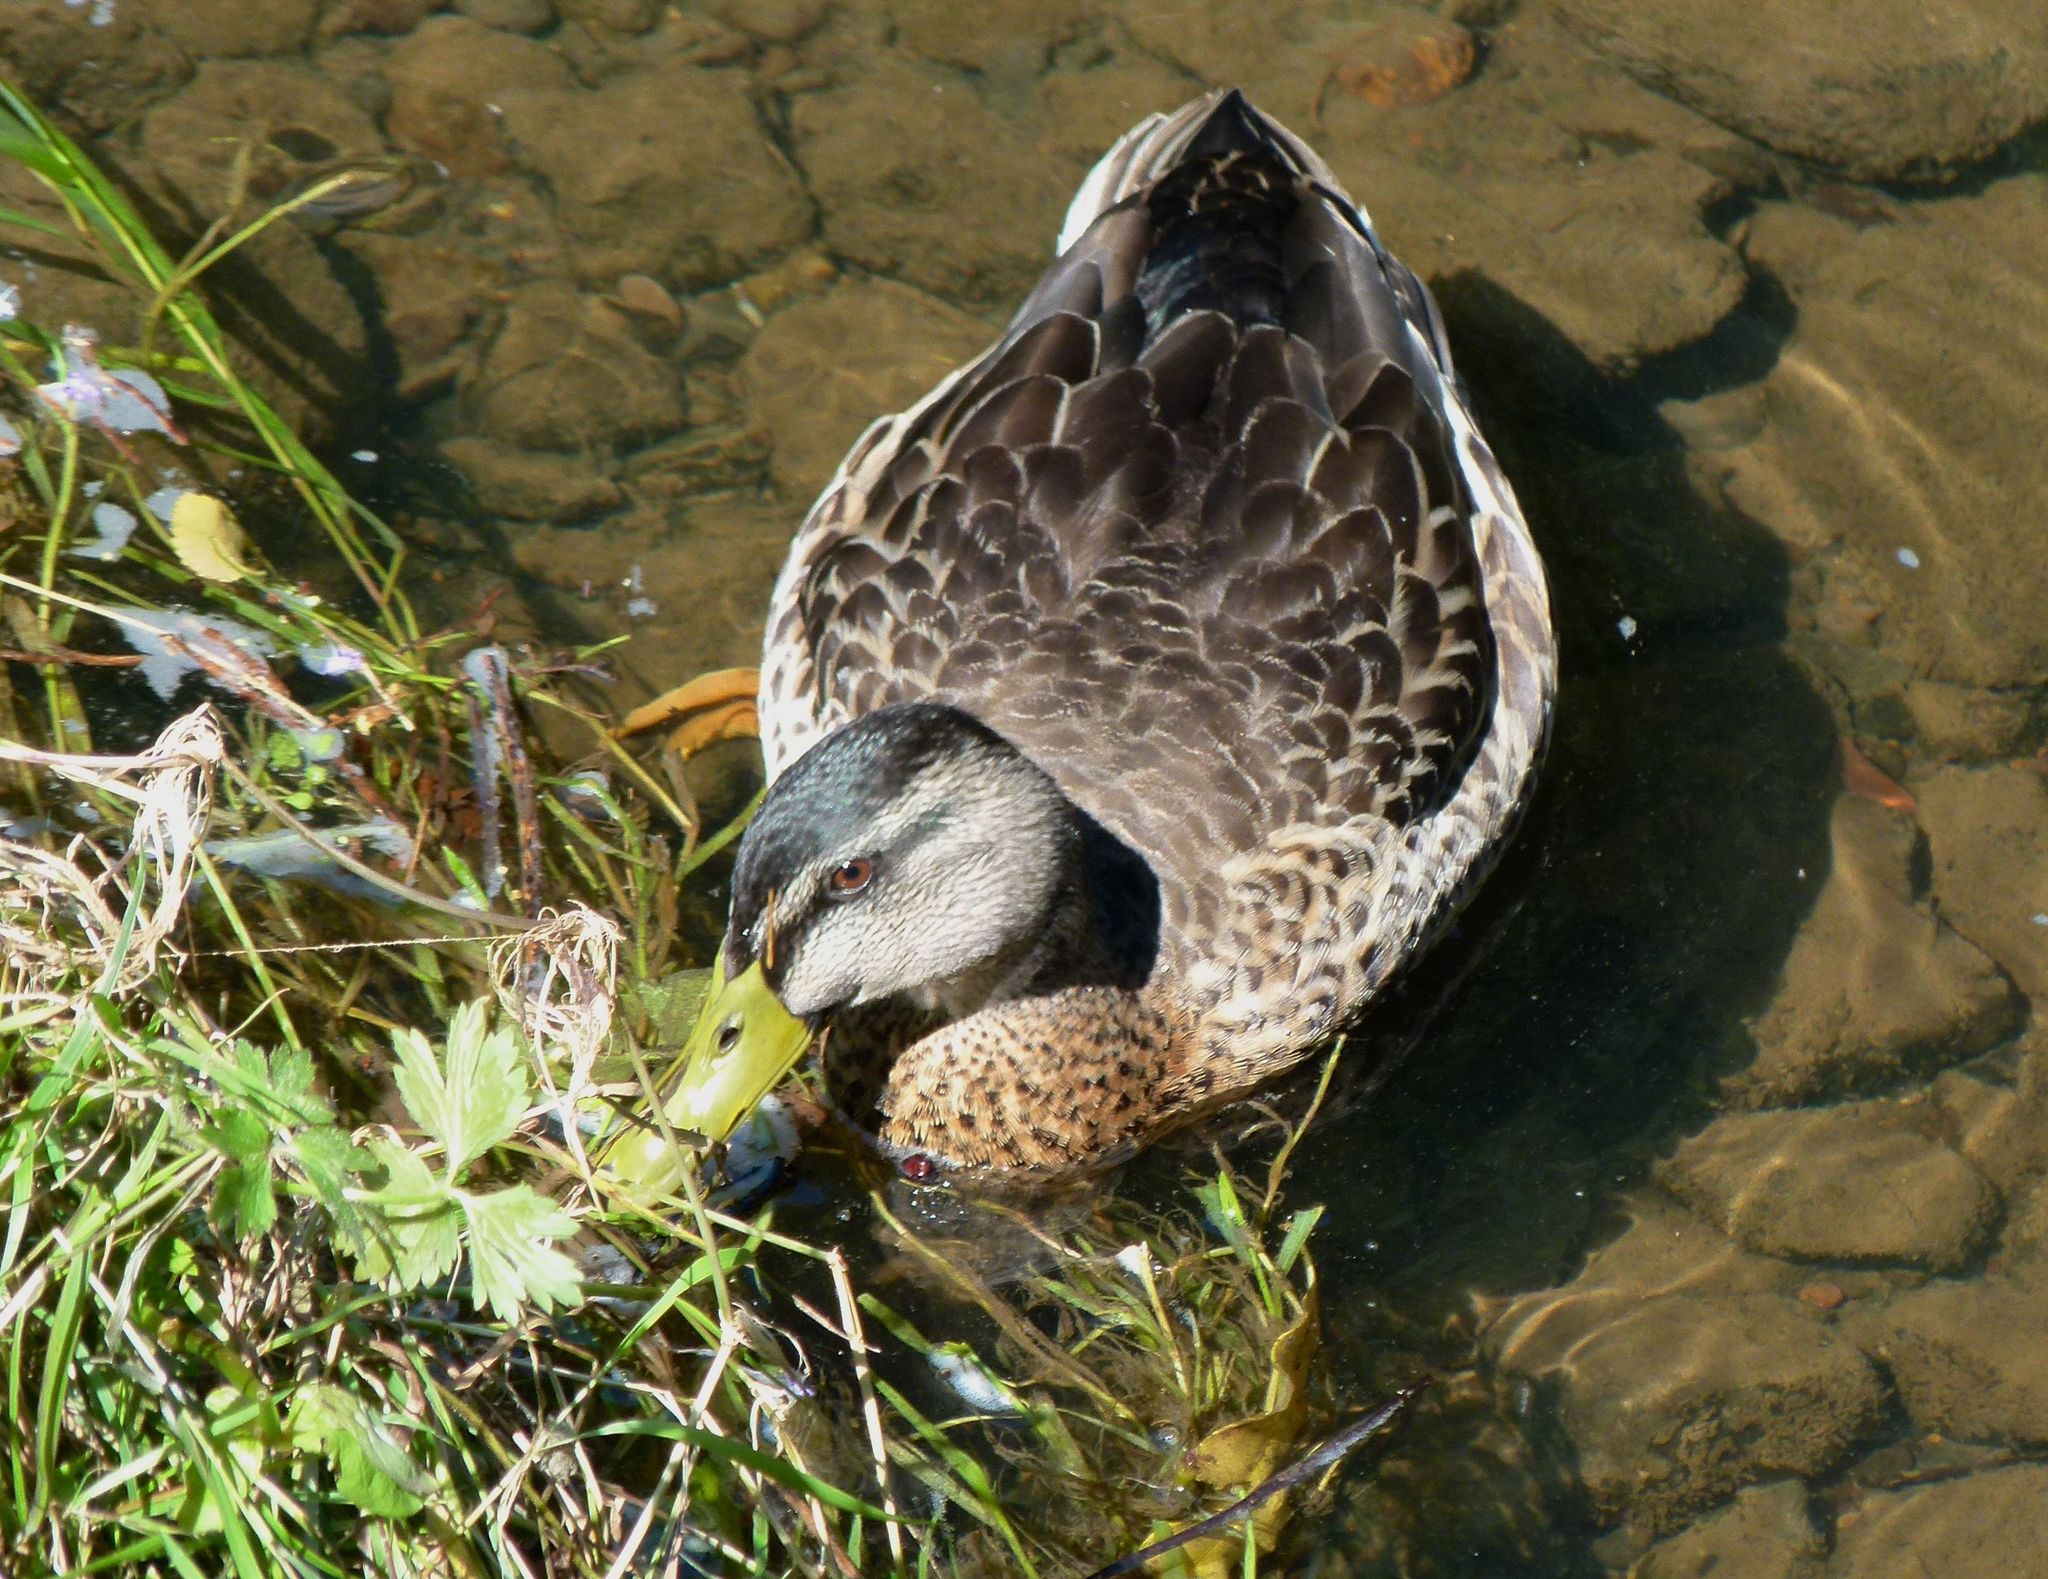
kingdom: Animalia
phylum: Chordata
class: Aves
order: Anseriformes
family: Anatidae
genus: Anas
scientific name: Anas
